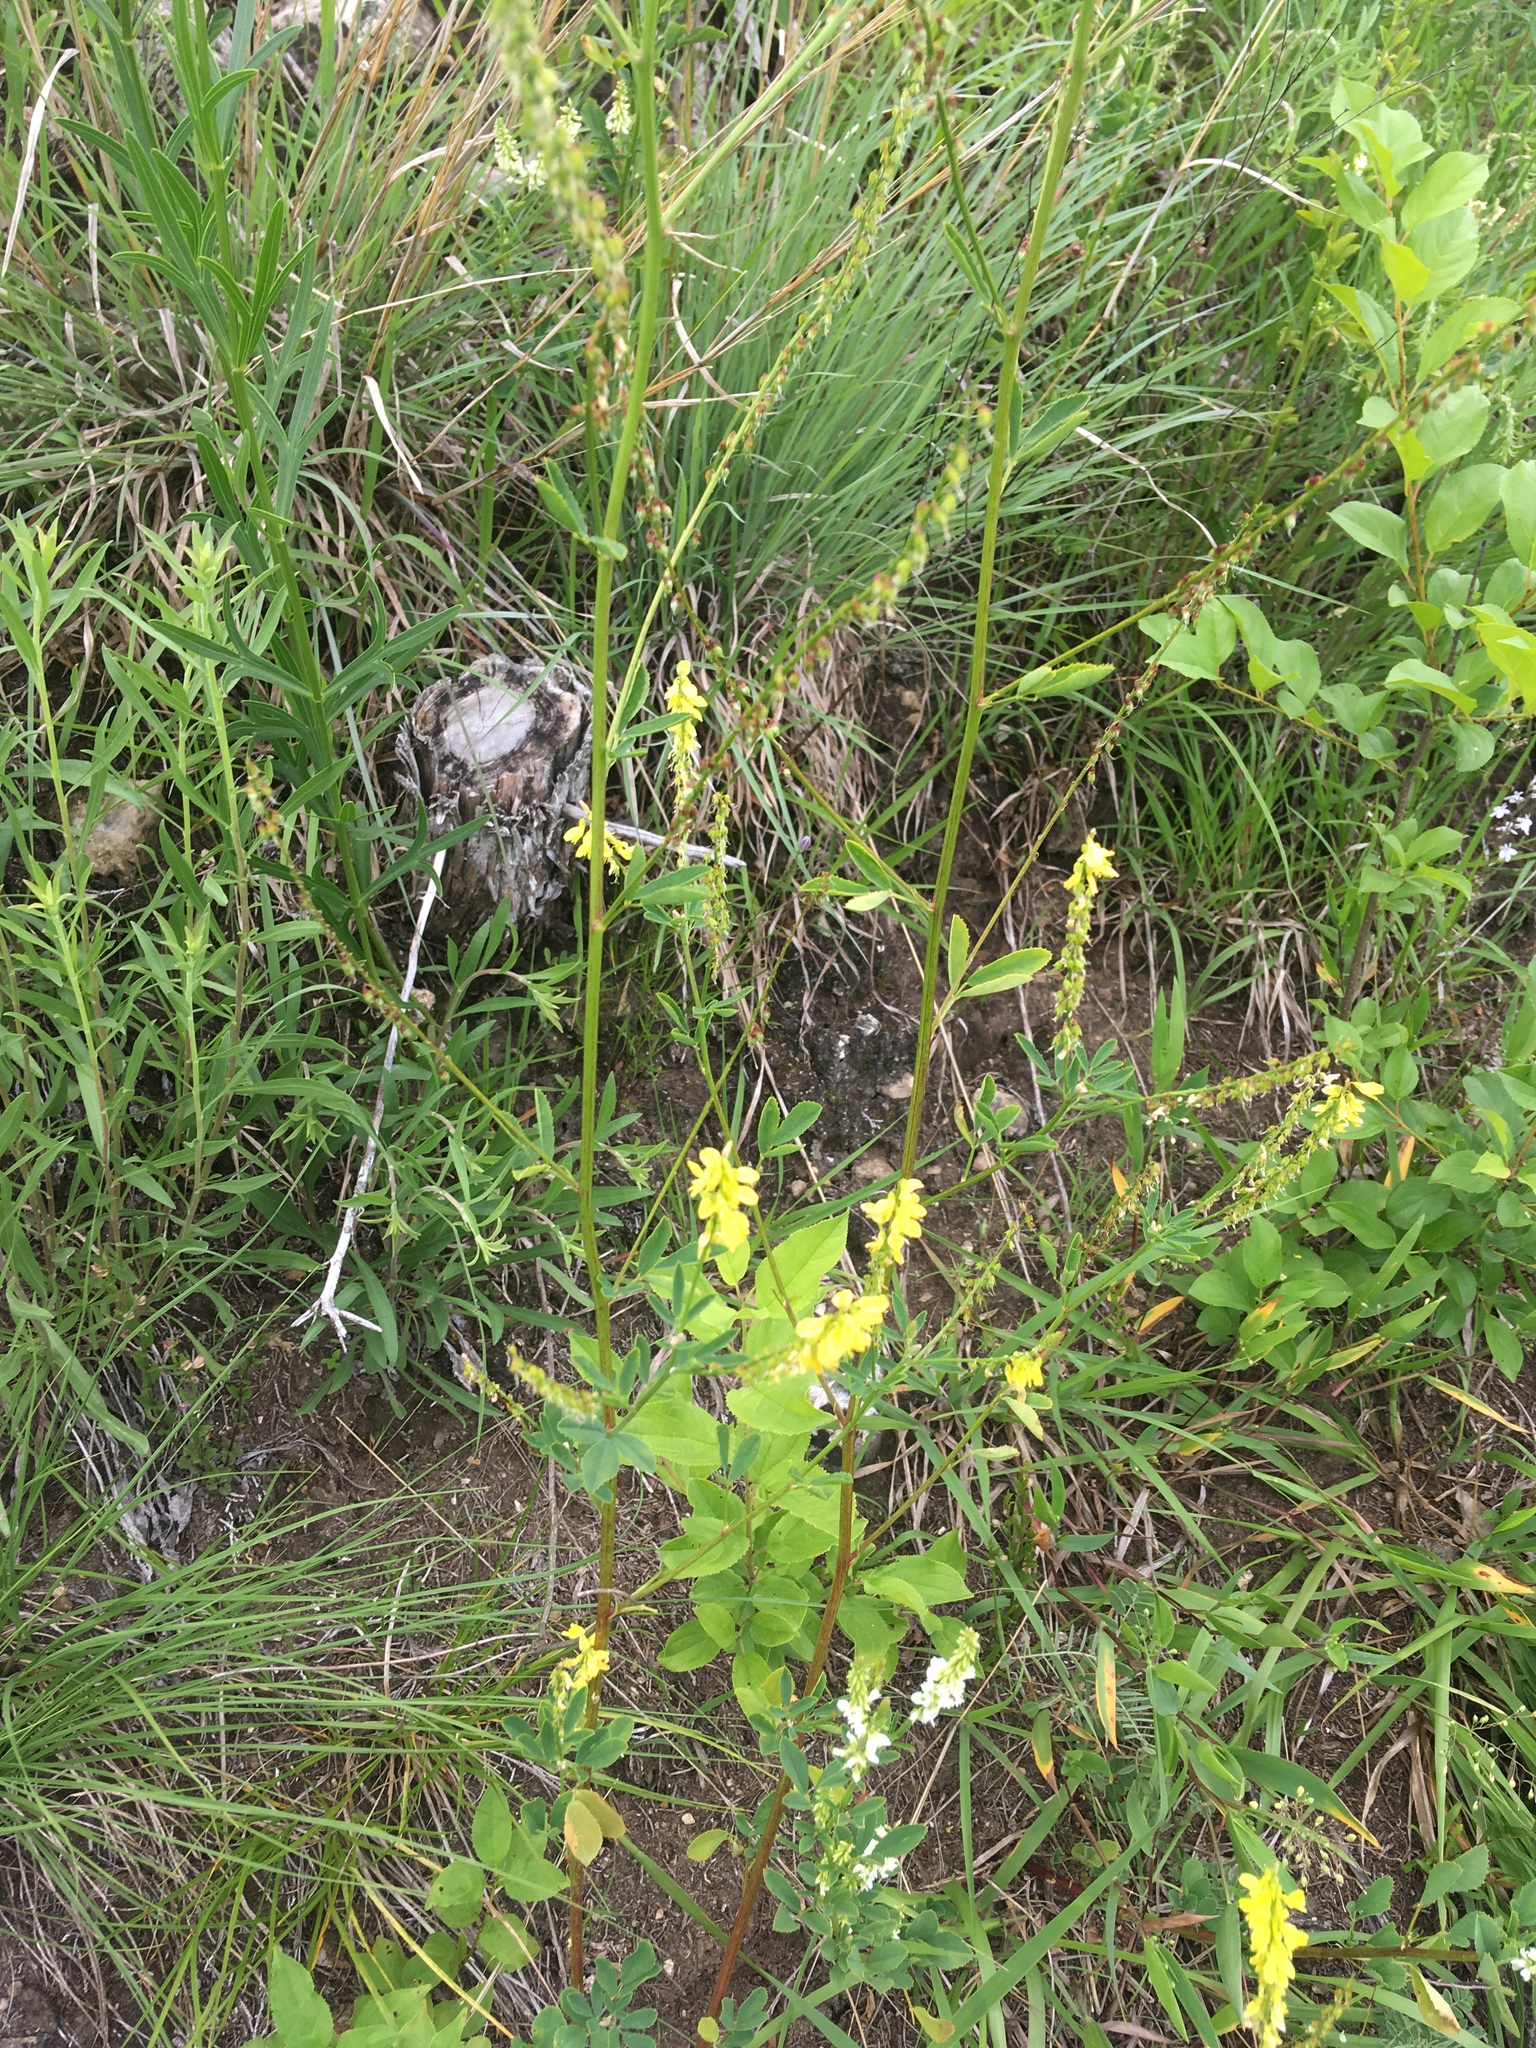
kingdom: Plantae
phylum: Tracheophyta
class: Magnoliopsida
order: Fabales
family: Fabaceae
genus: Melilotus
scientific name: Melilotus officinalis
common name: Sweetclover
